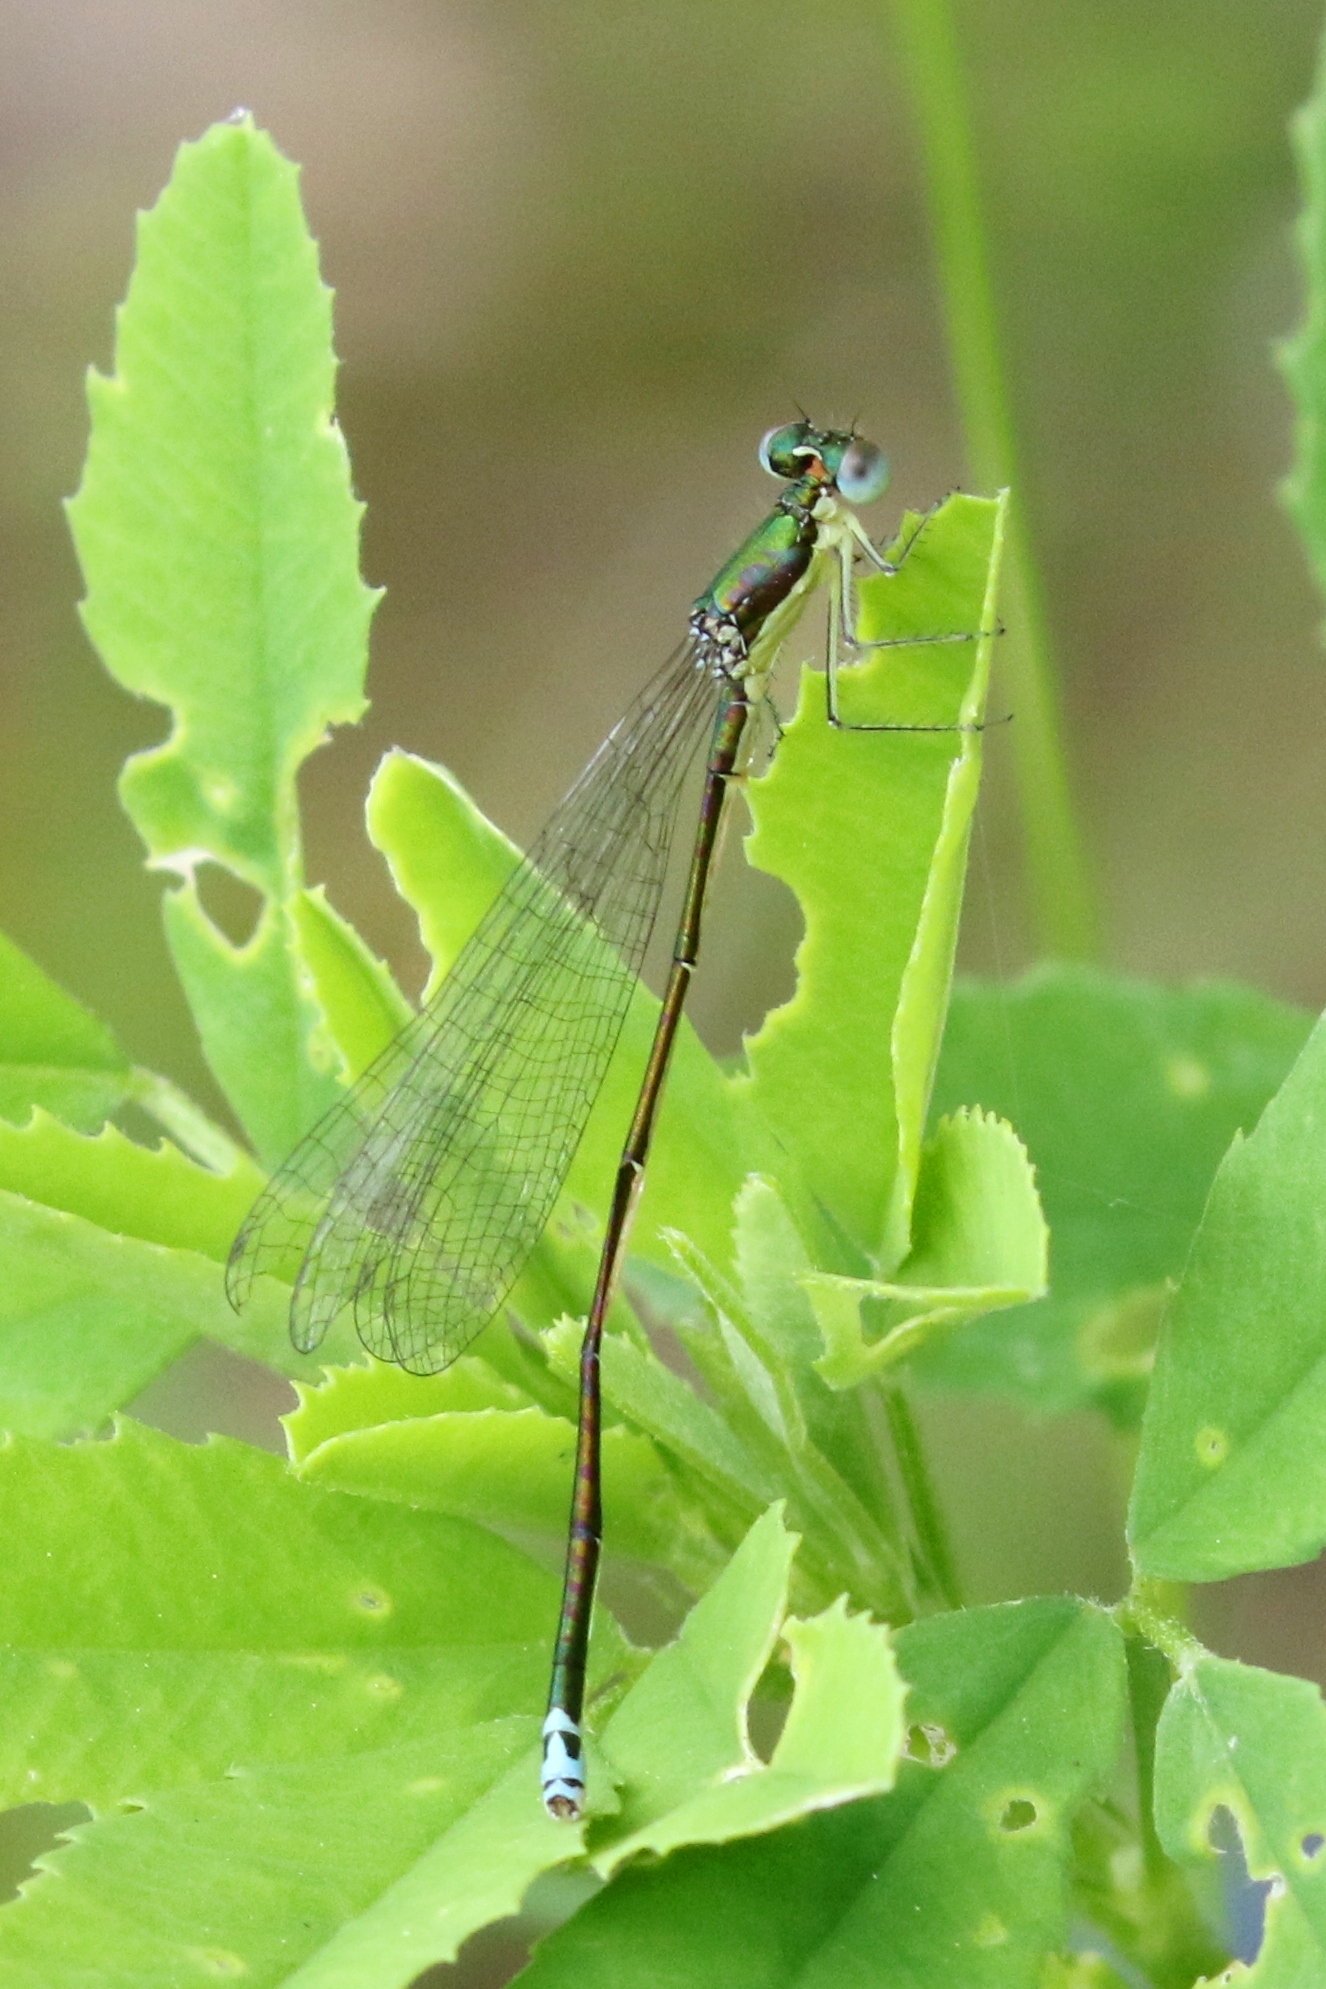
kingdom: Animalia
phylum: Arthropoda
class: Insecta
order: Odonata
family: Coenagrionidae
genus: Nehalennia
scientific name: Nehalennia irene
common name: Sedge sprite
